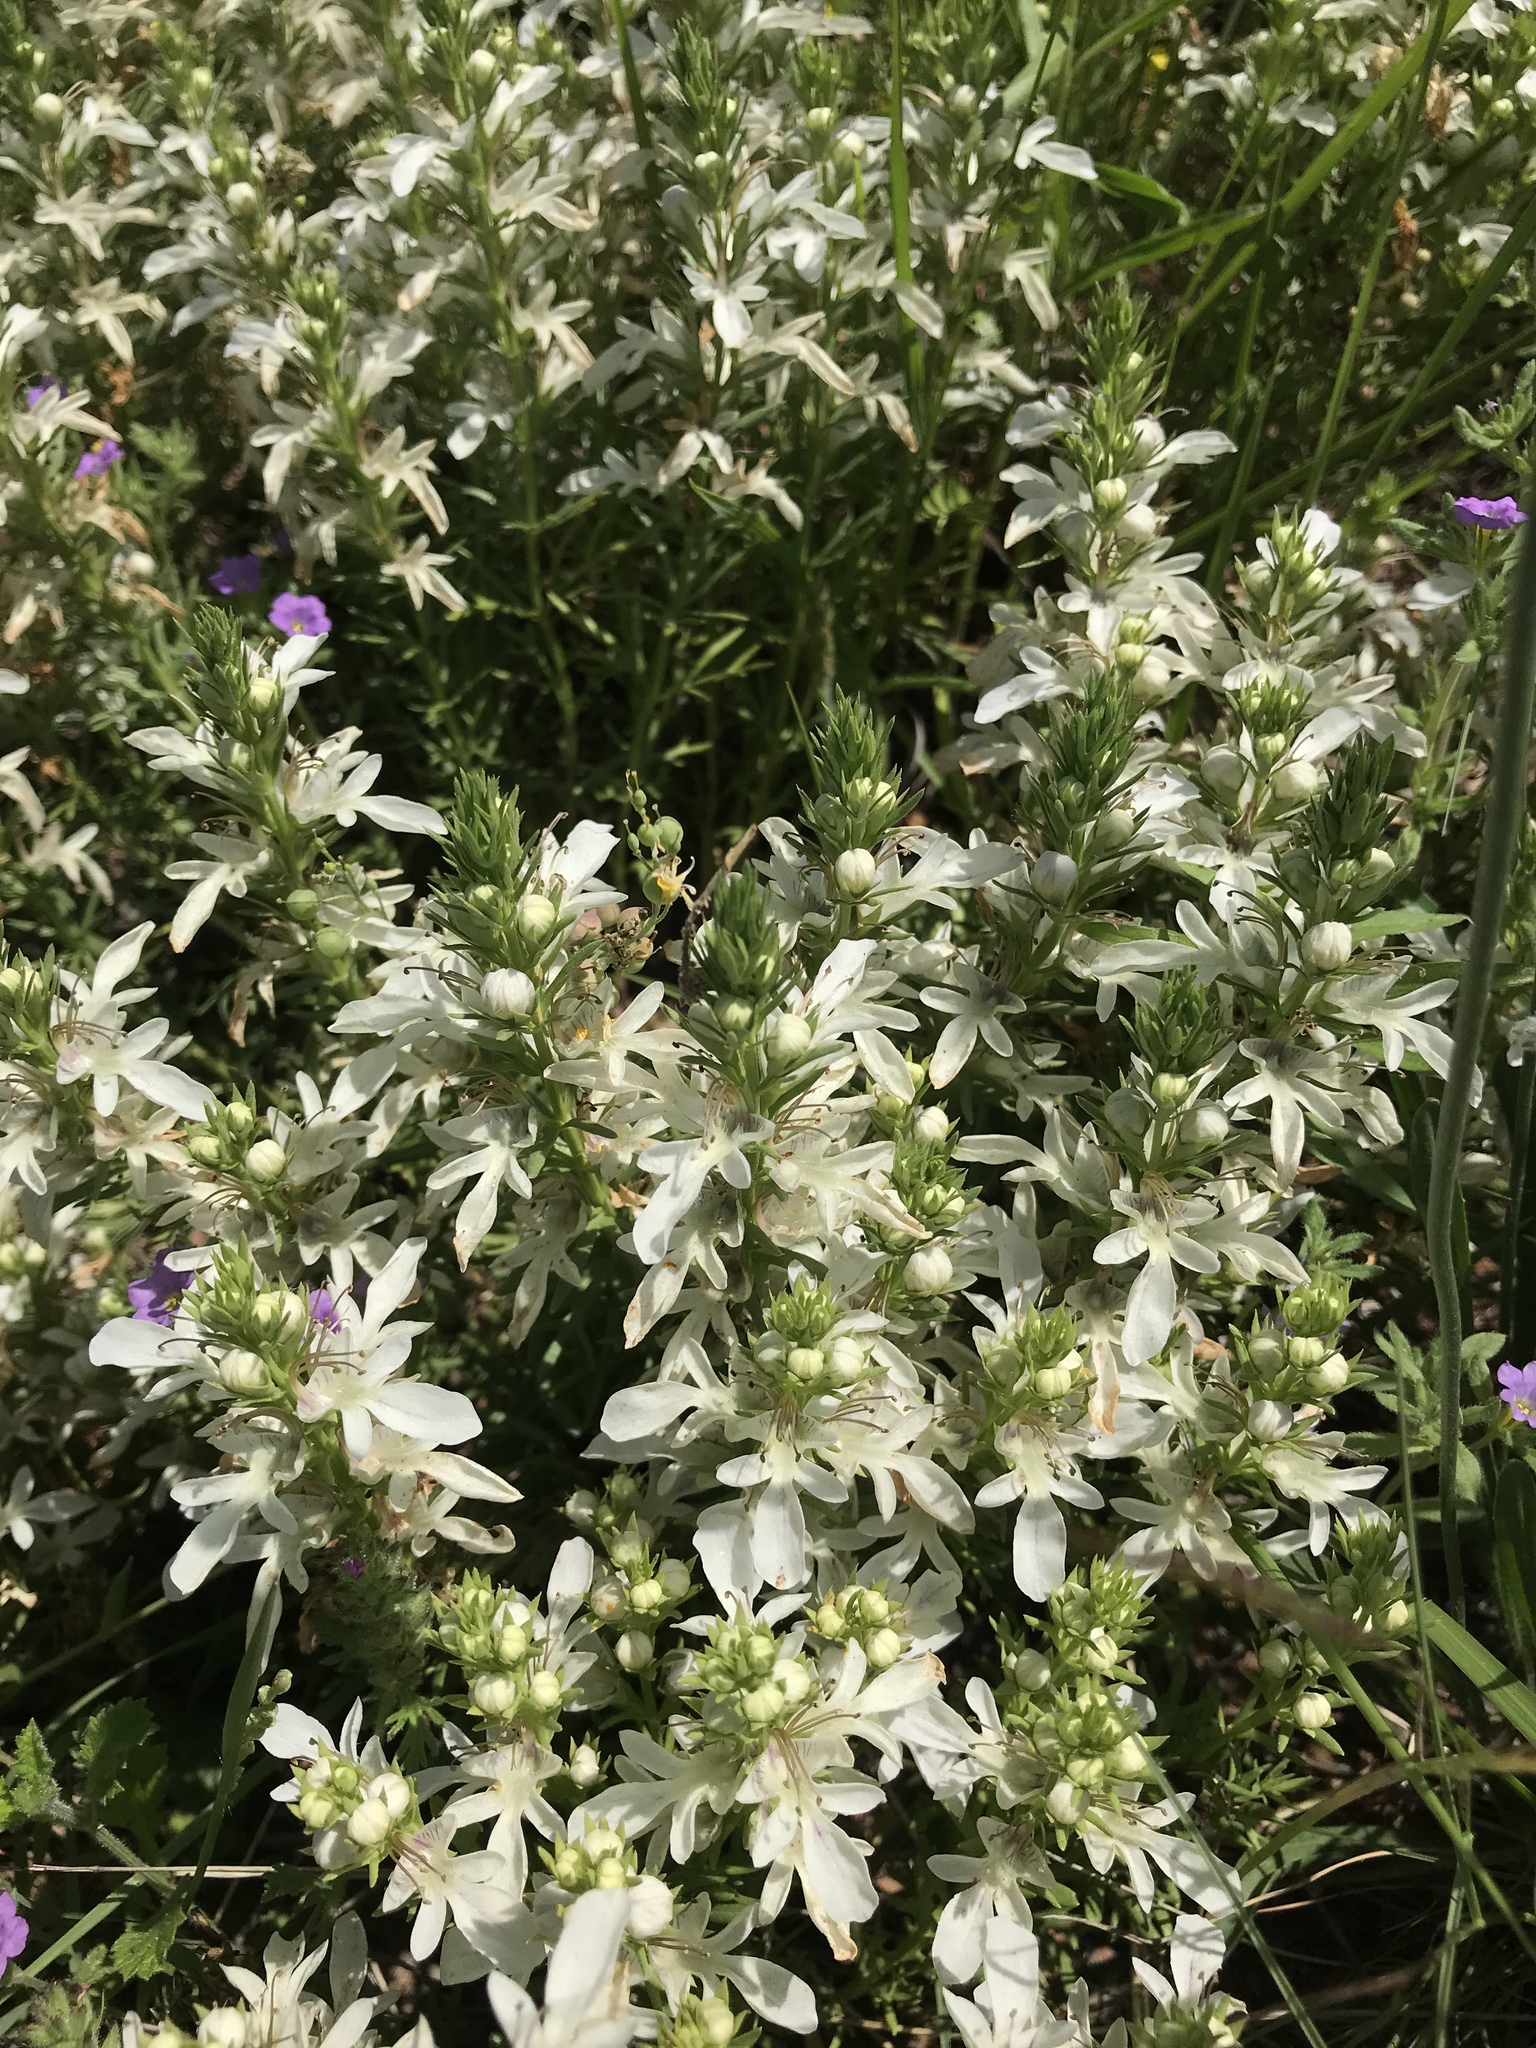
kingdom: Plantae
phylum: Tracheophyta
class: Magnoliopsida
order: Lamiales
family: Lamiaceae
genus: Teucrium
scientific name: Teucrium laciniatum
